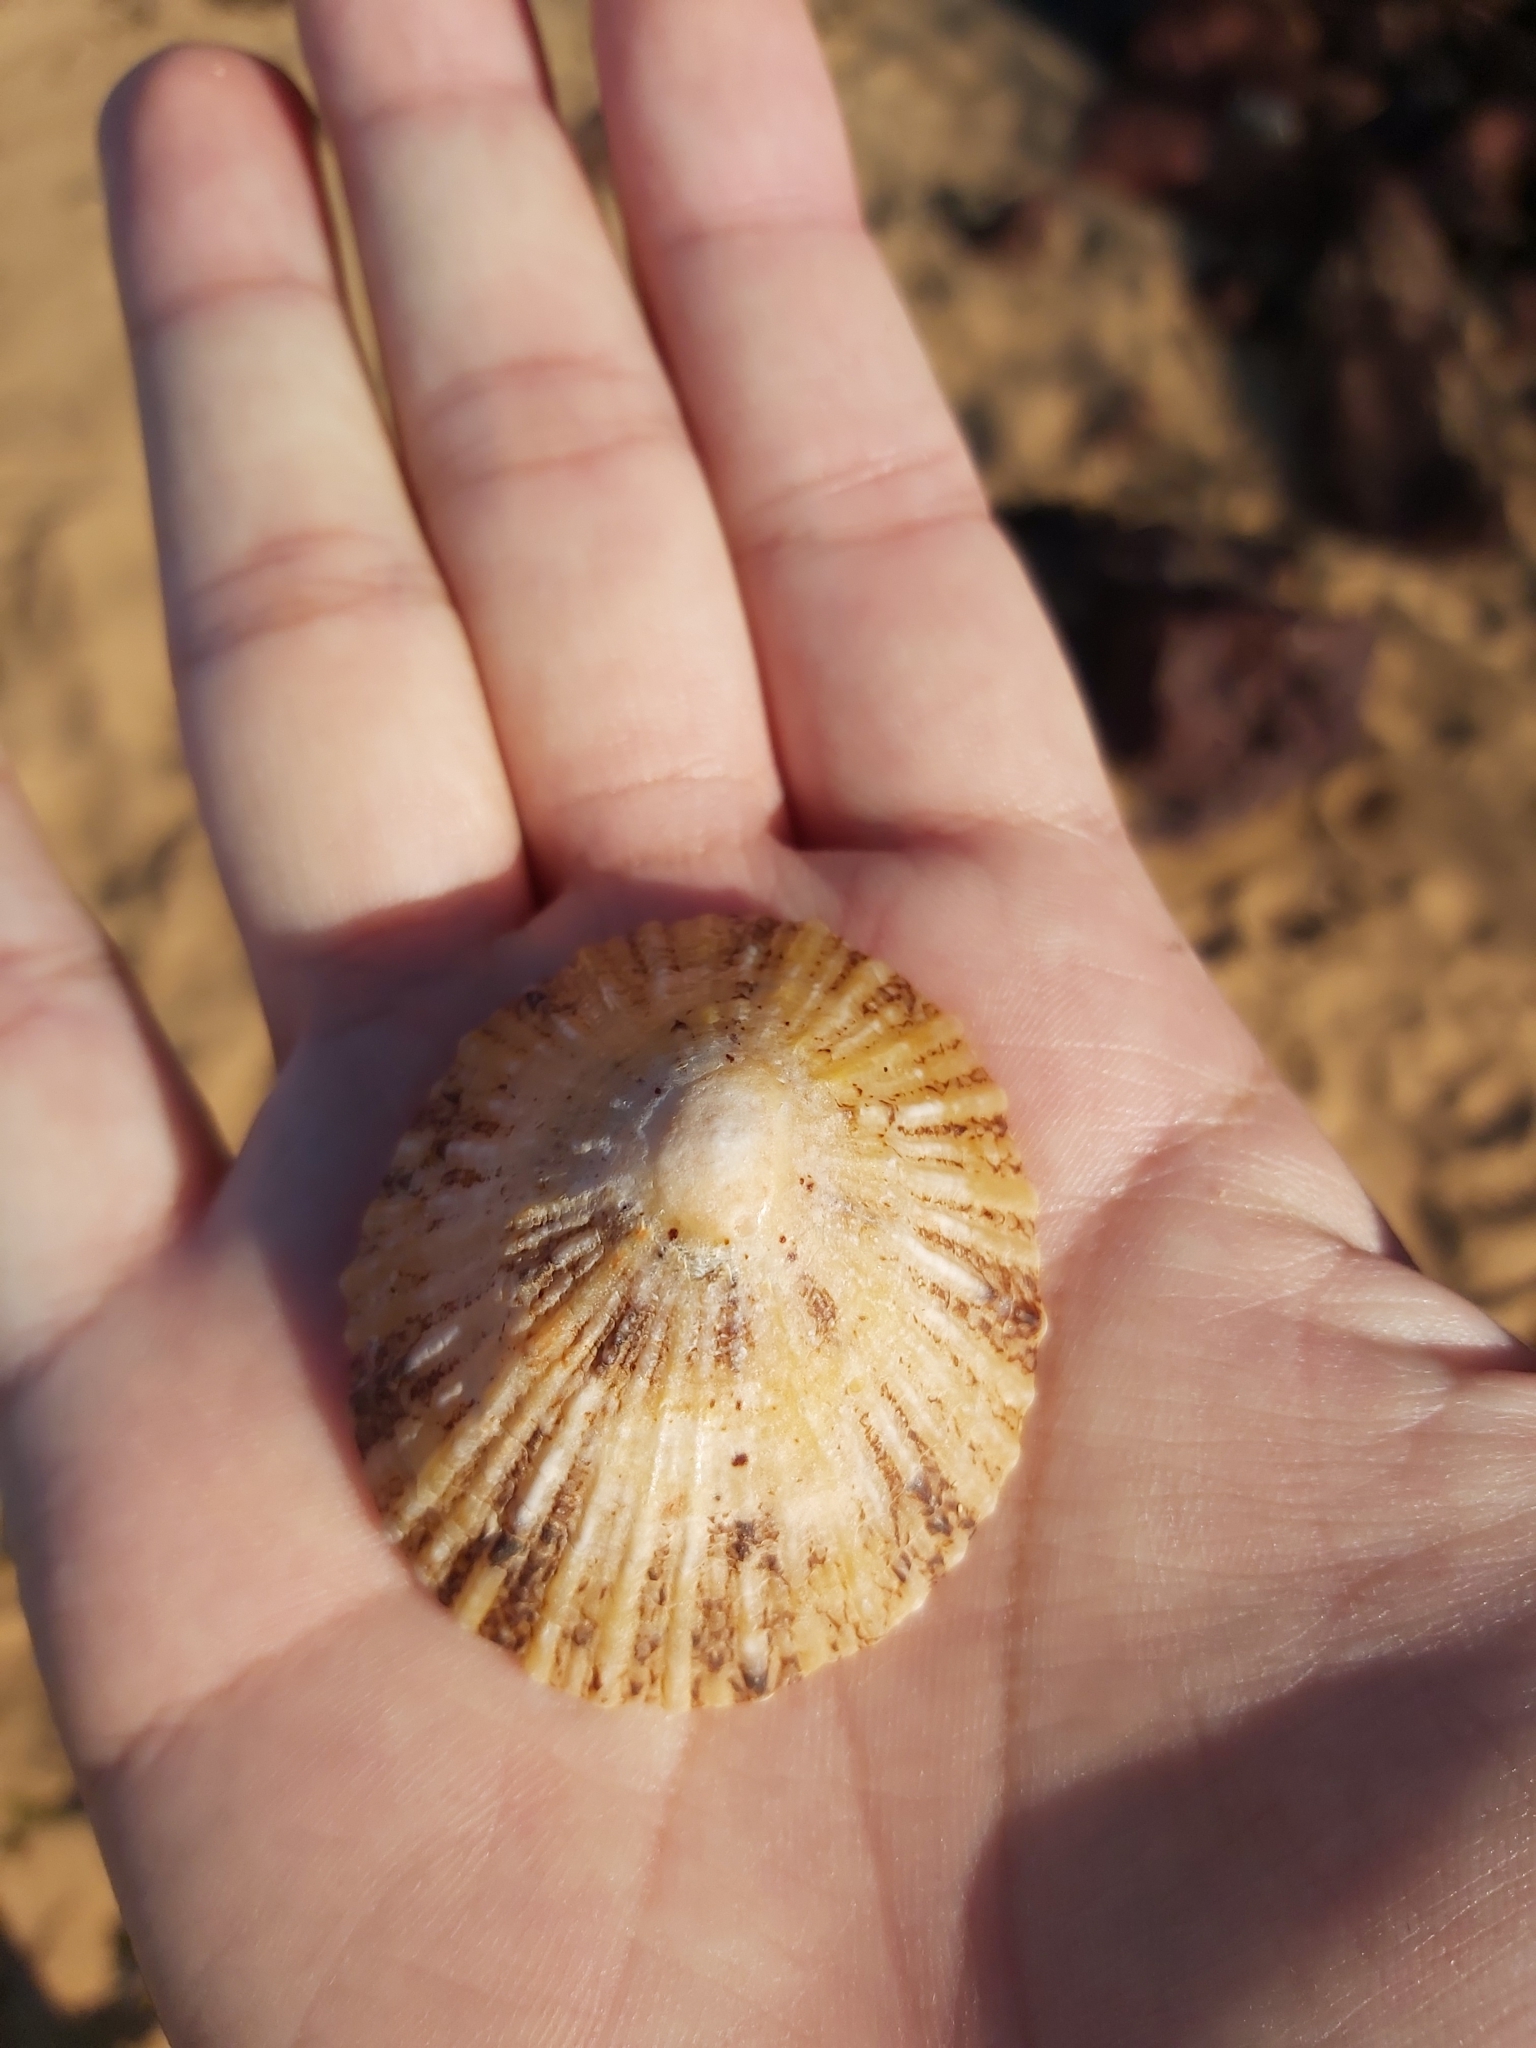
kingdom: Animalia
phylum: Mollusca
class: Gastropoda
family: Nacellidae
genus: Cellana
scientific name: Cellana tramoserica
